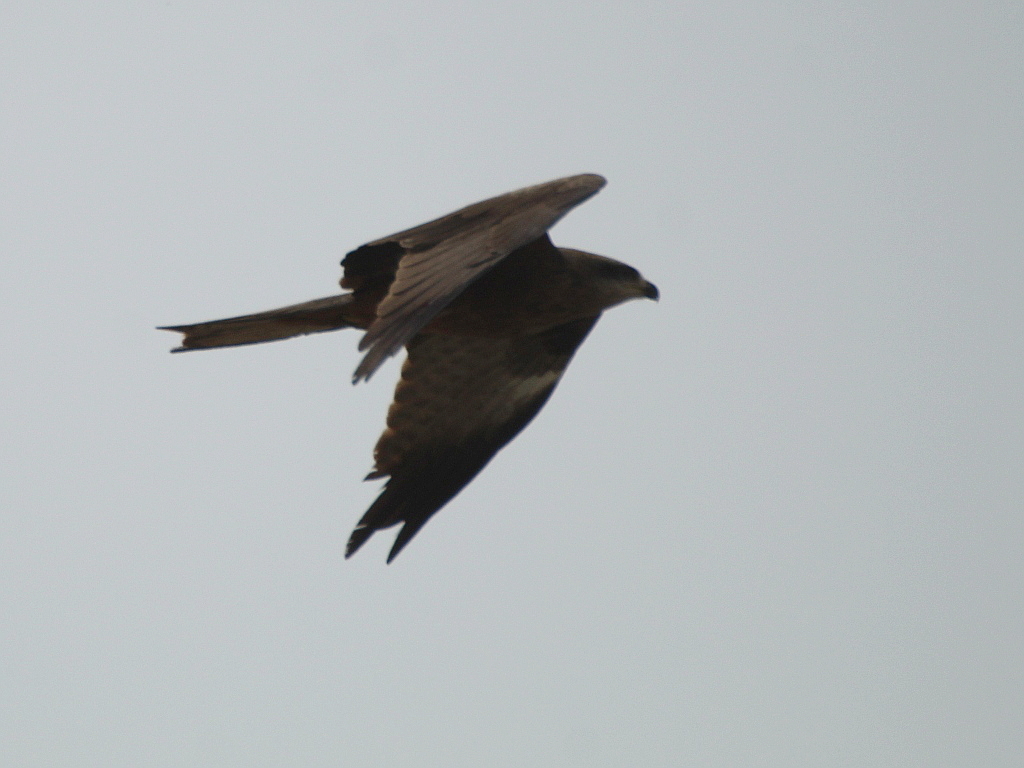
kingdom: Animalia
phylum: Chordata
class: Aves
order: Accipitriformes
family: Accipitridae
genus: Milvus
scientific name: Milvus migrans
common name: Black kite
